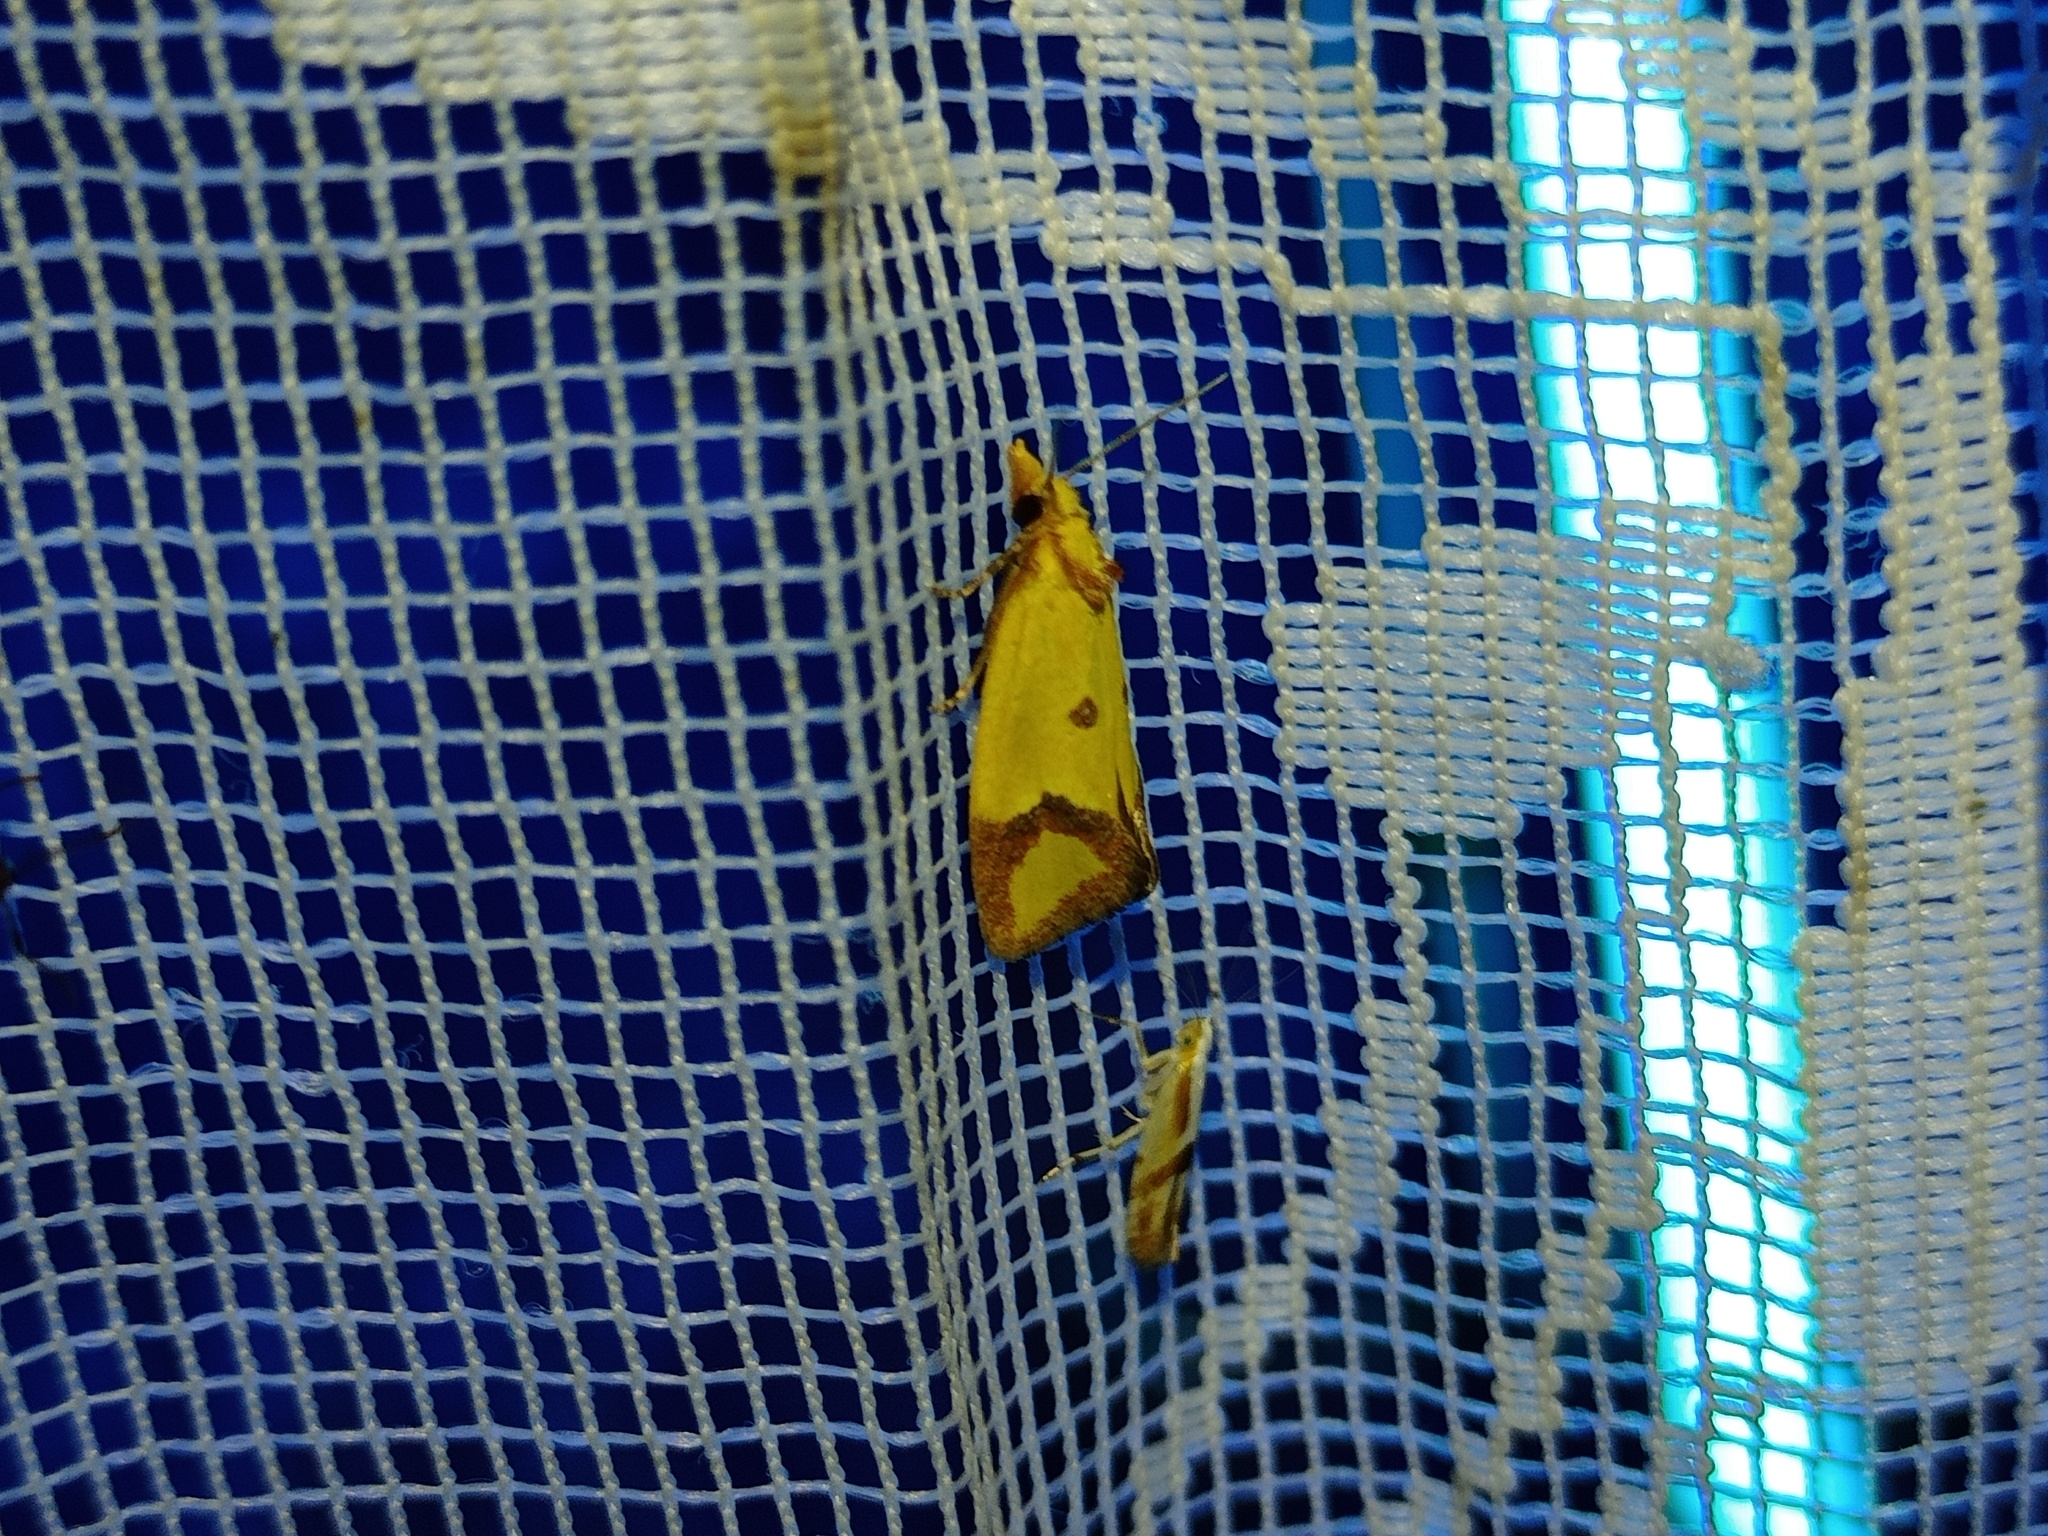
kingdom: Animalia
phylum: Arthropoda
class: Insecta
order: Lepidoptera
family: Tortricidae
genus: Agapeta
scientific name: Agapeta zoegana
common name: Sulfur knapweed root moth
